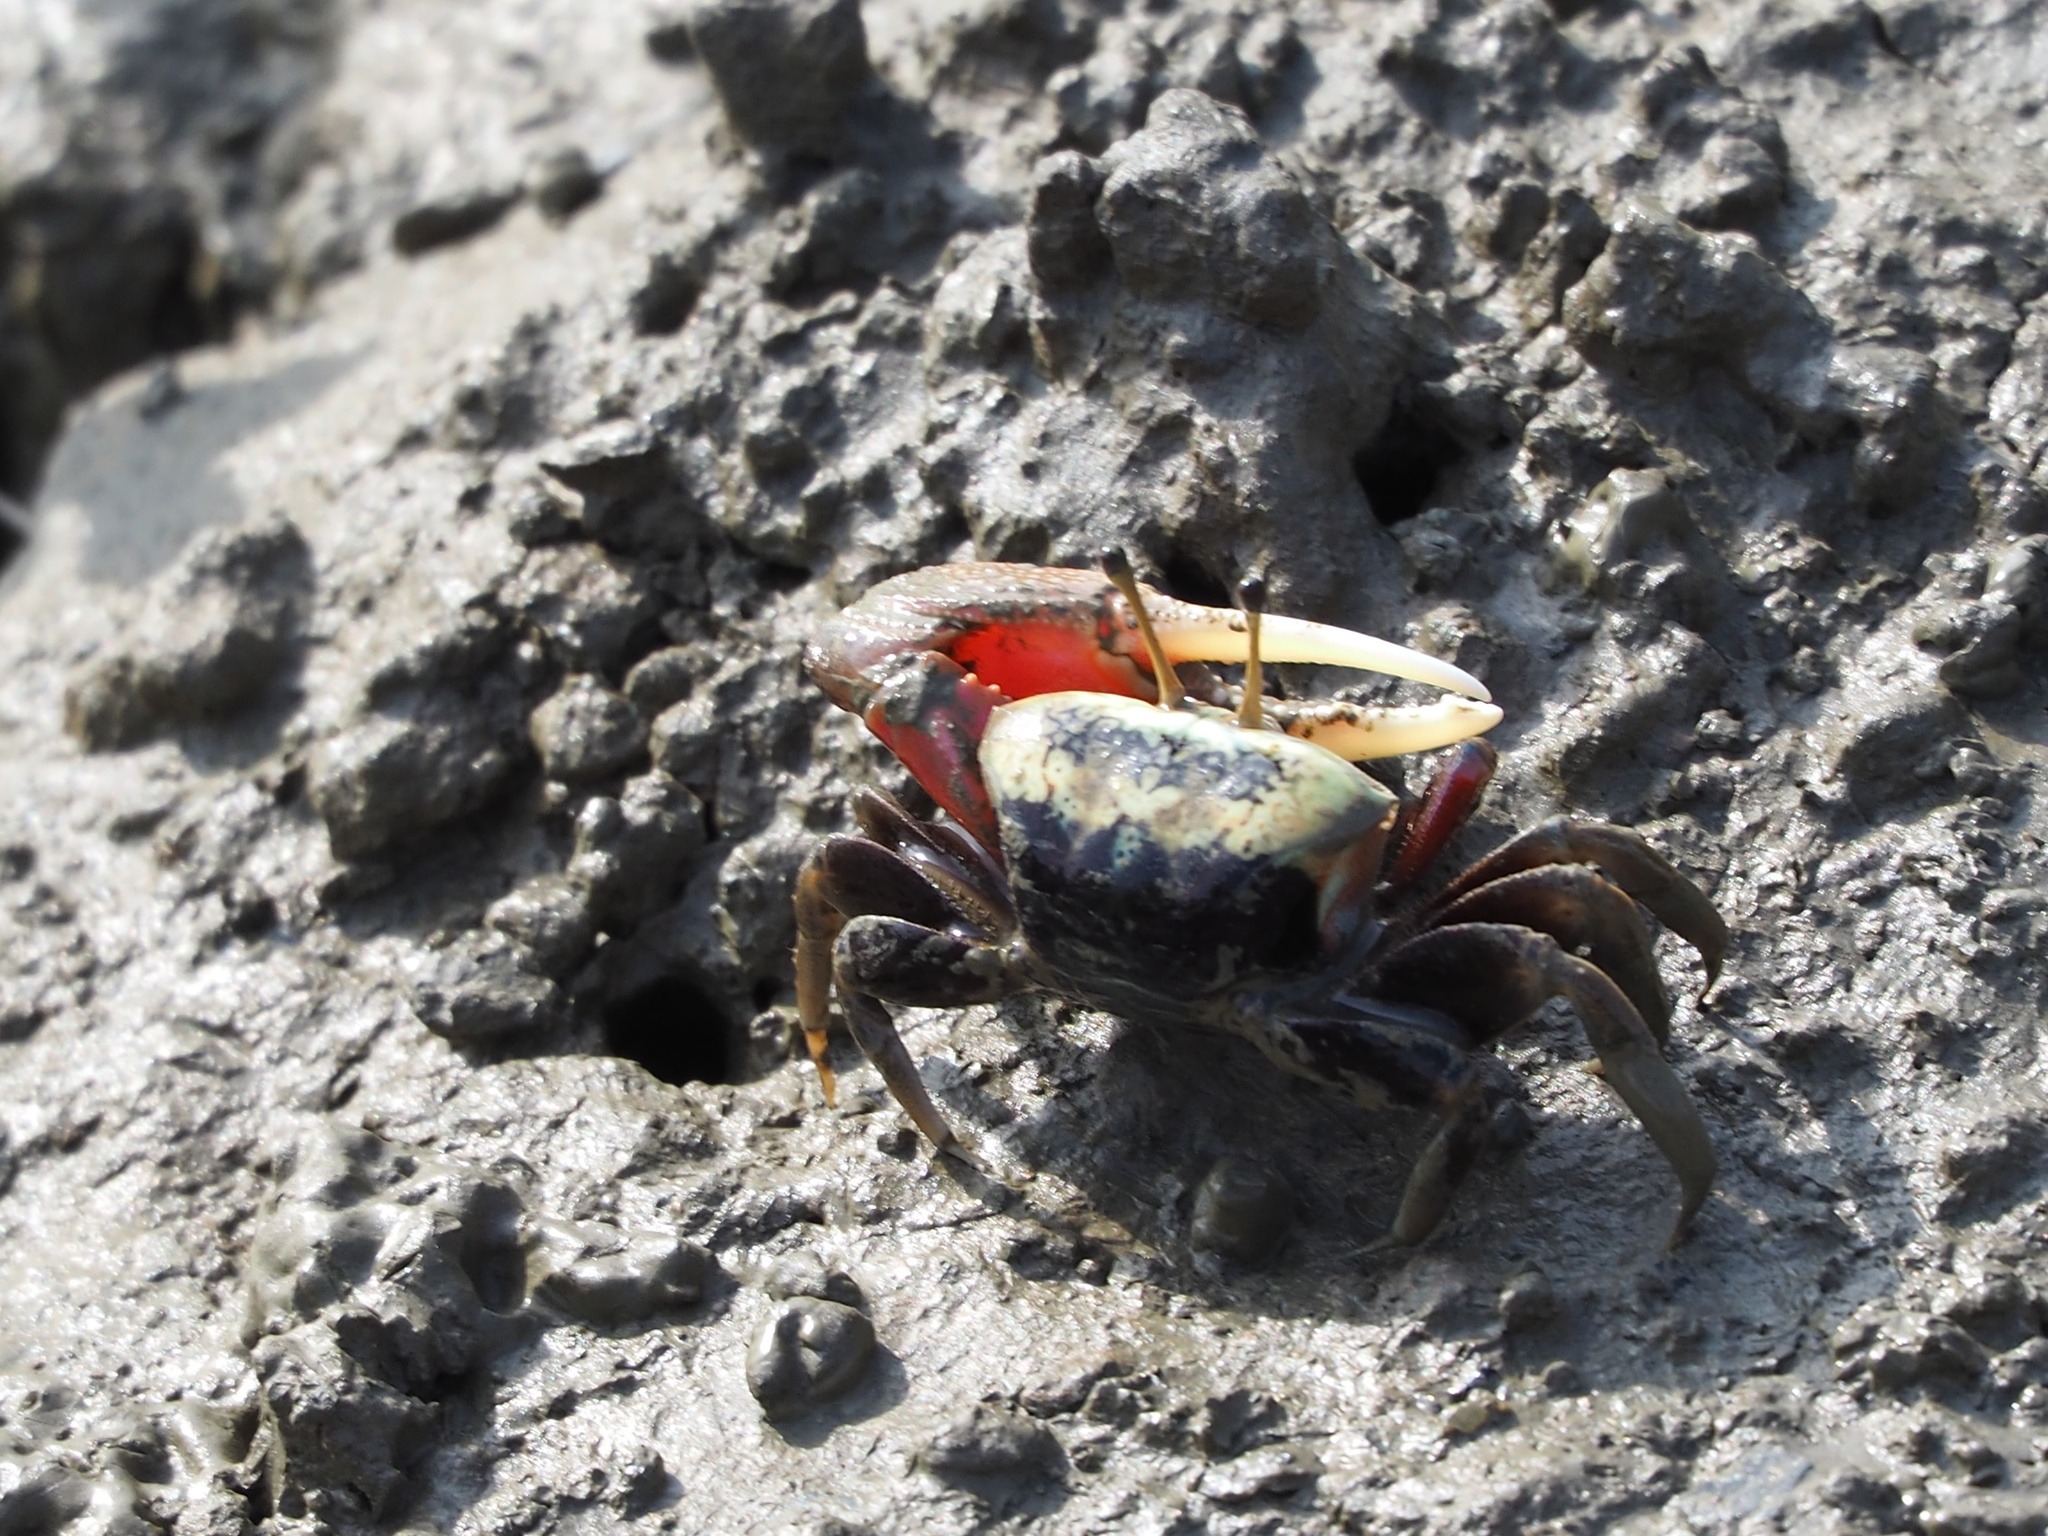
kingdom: Animalia
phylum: Arthropoda
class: Malacostraca
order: Decapoda
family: Ocypodidae
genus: Tubuca
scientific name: Tubuca arcuata
